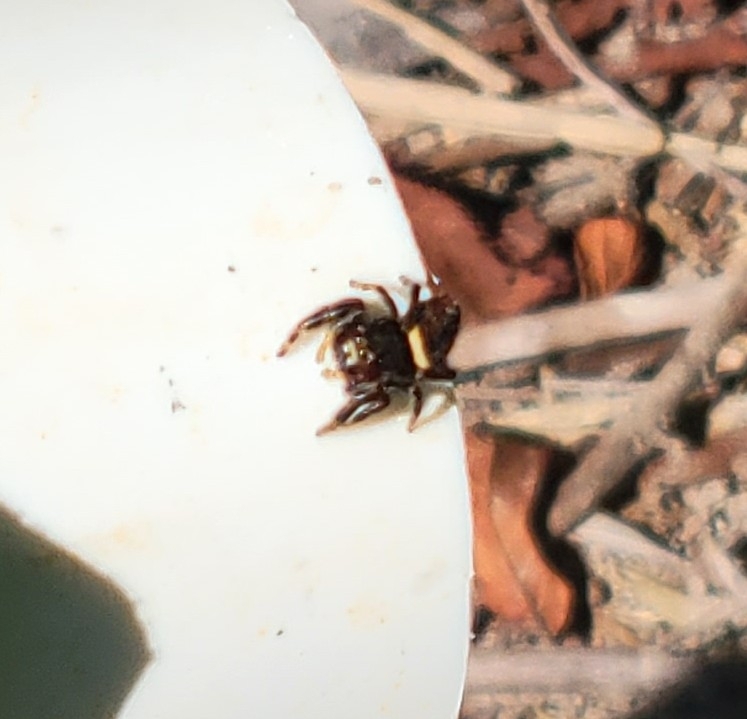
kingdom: Animalia
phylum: Arthropoda
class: Arachnida
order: Araneae
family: Salticidae
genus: Phidippus
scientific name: Phidippus clarus
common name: Brilliant jumping spider
